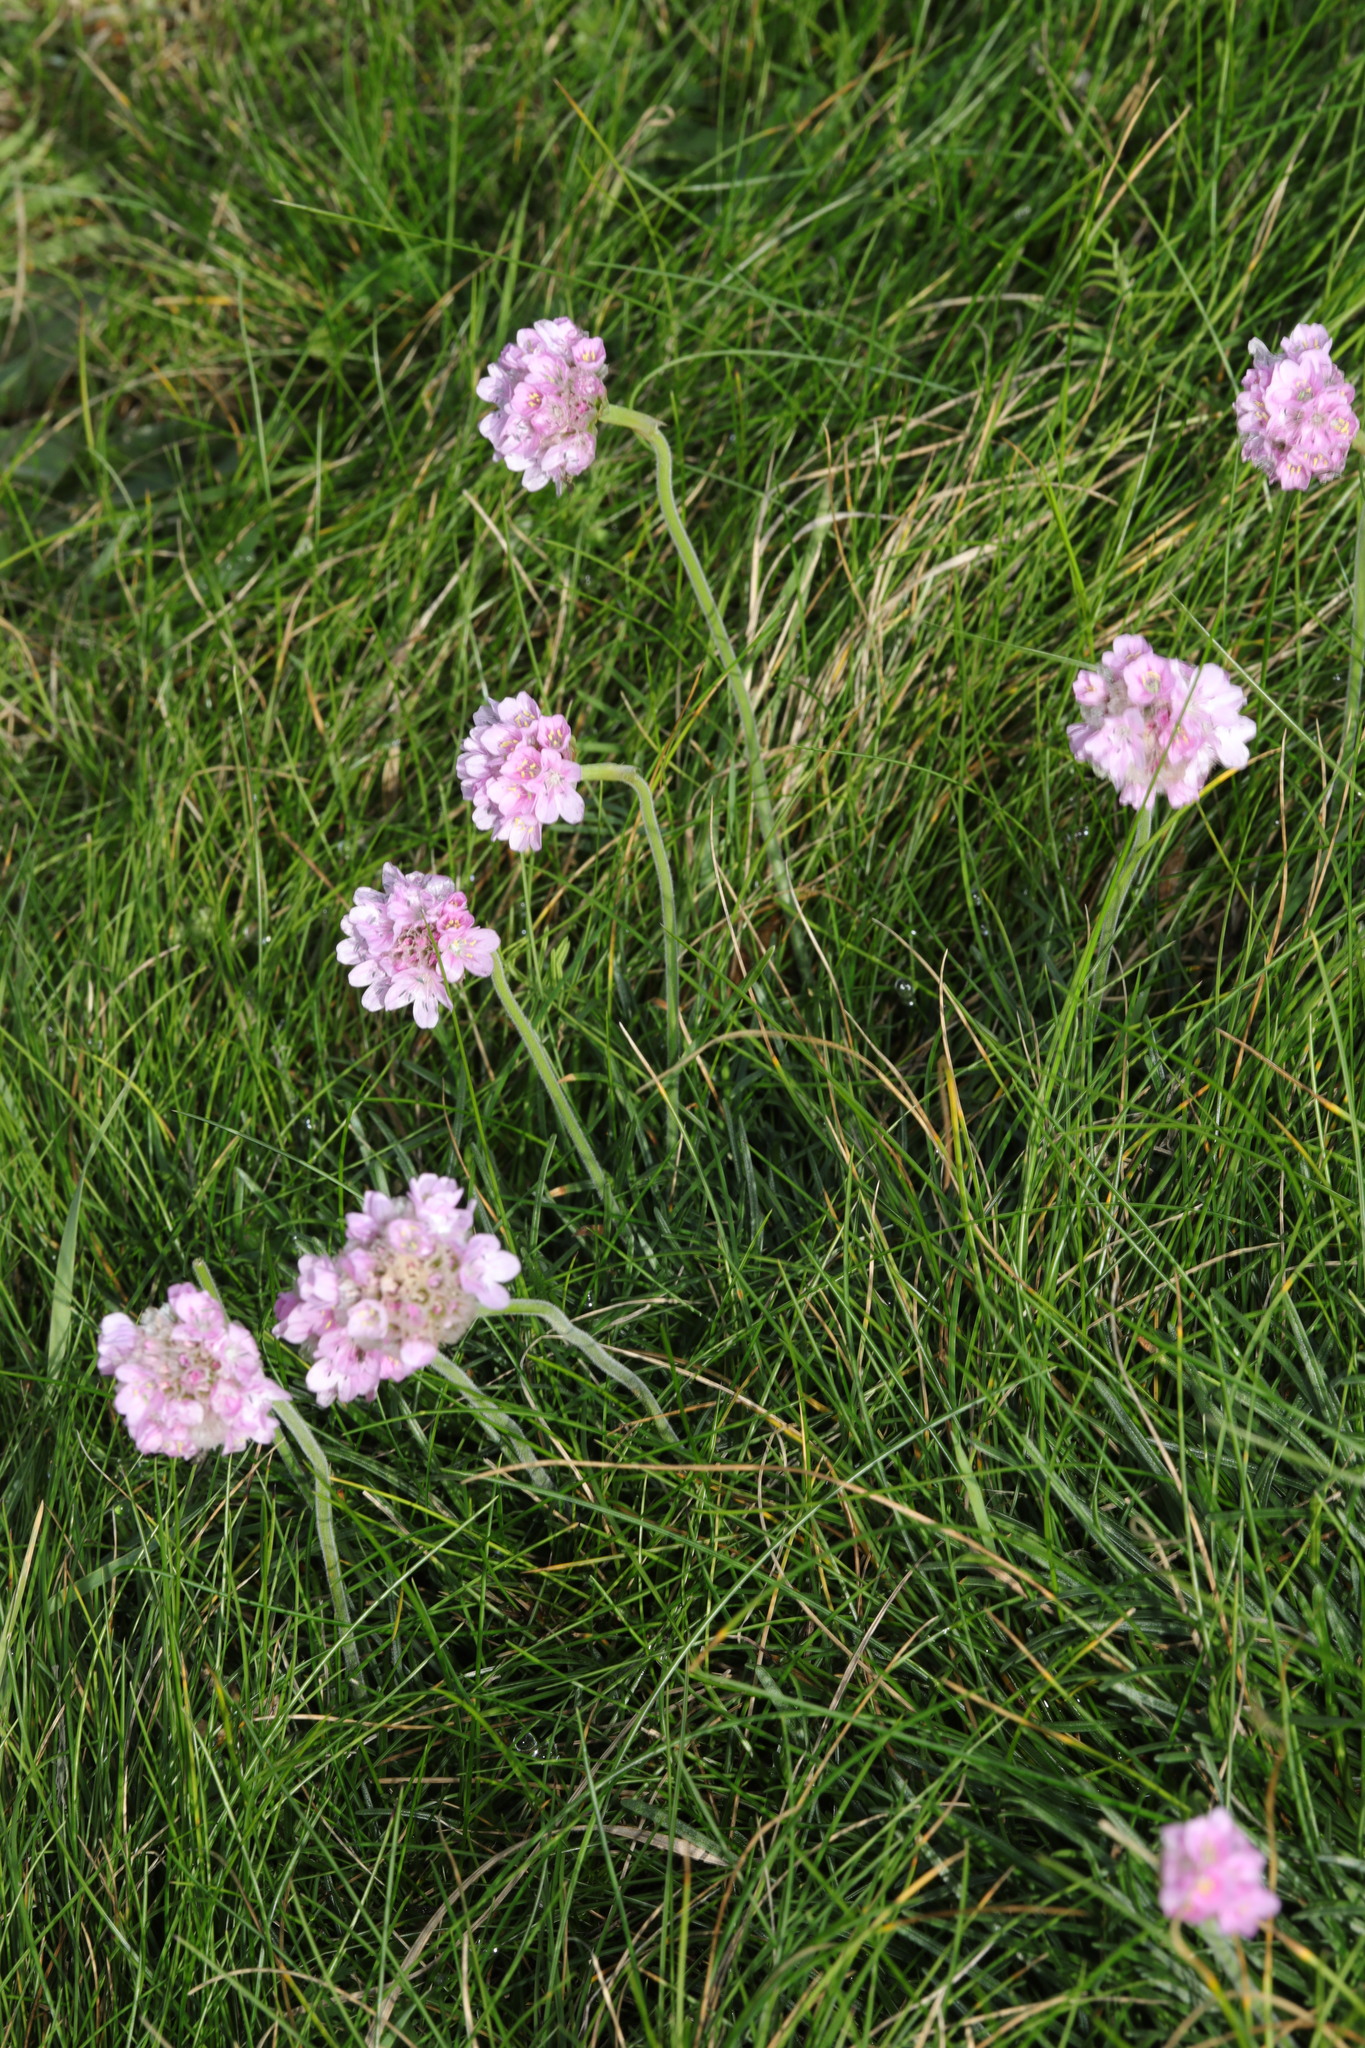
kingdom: Plantae
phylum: Tracheophyta
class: Magnoliopsida
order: Caryophyllales
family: Plumbaginaceae
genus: Armeria
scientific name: Armeria maritima
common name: Thrift
